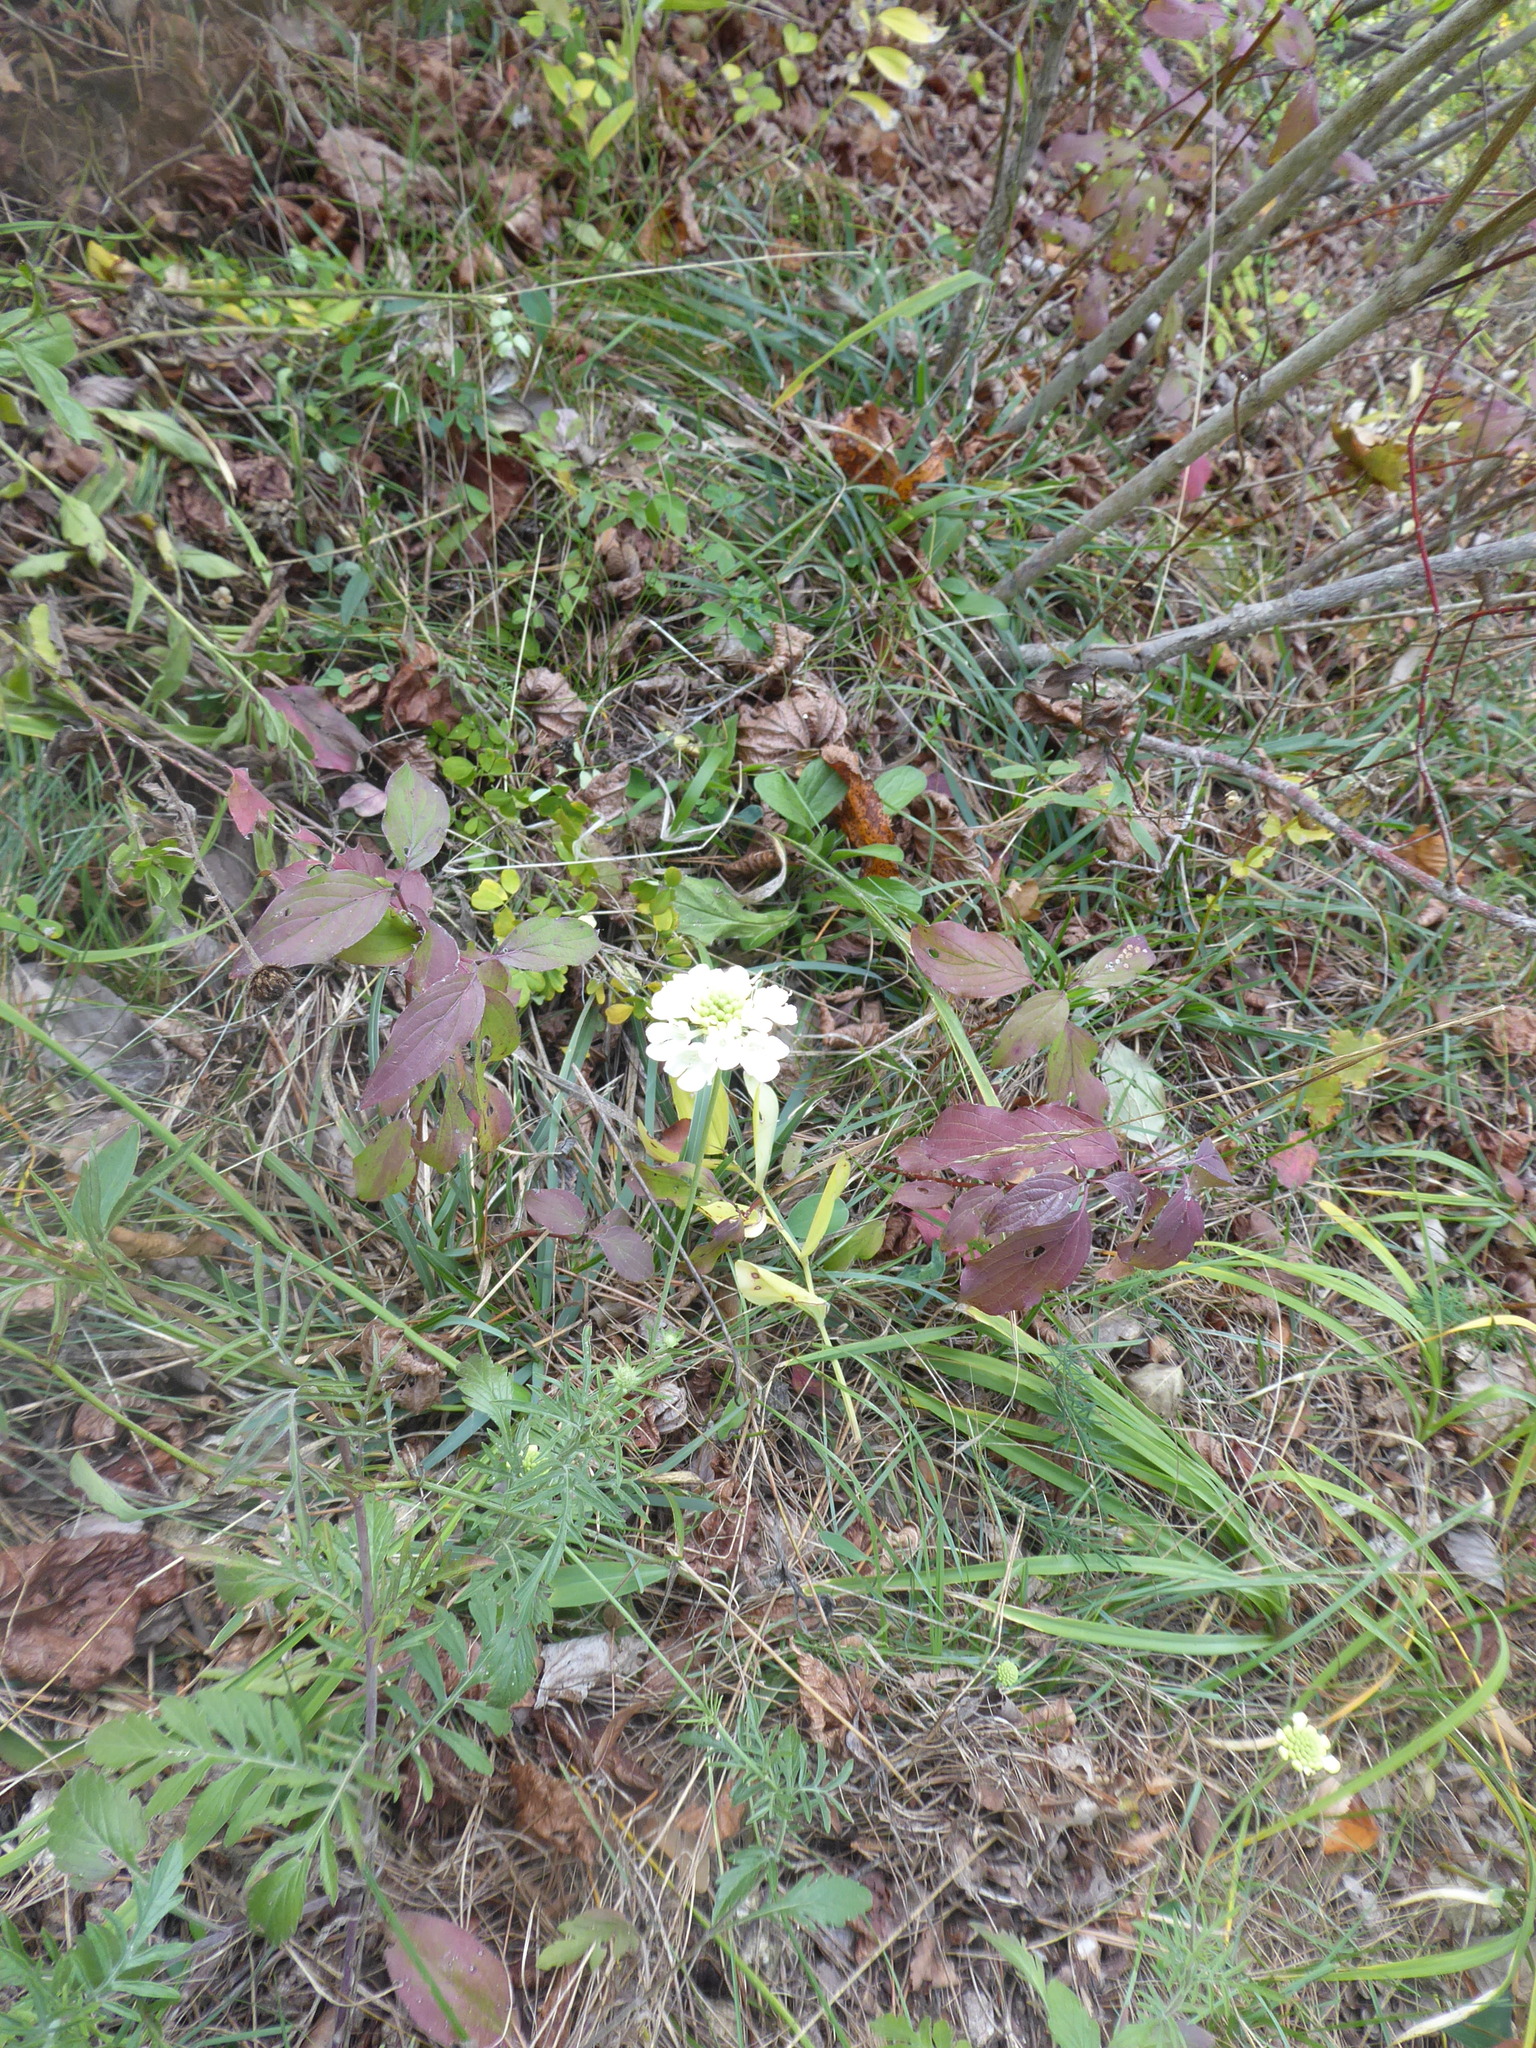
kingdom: Plantae
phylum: Tracheophyta
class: Magnoliopsida
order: Dipsacales
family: Caprifoliaceae
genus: Scabiosa
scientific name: Scabiosa ochroleuca
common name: Cream pincushions
